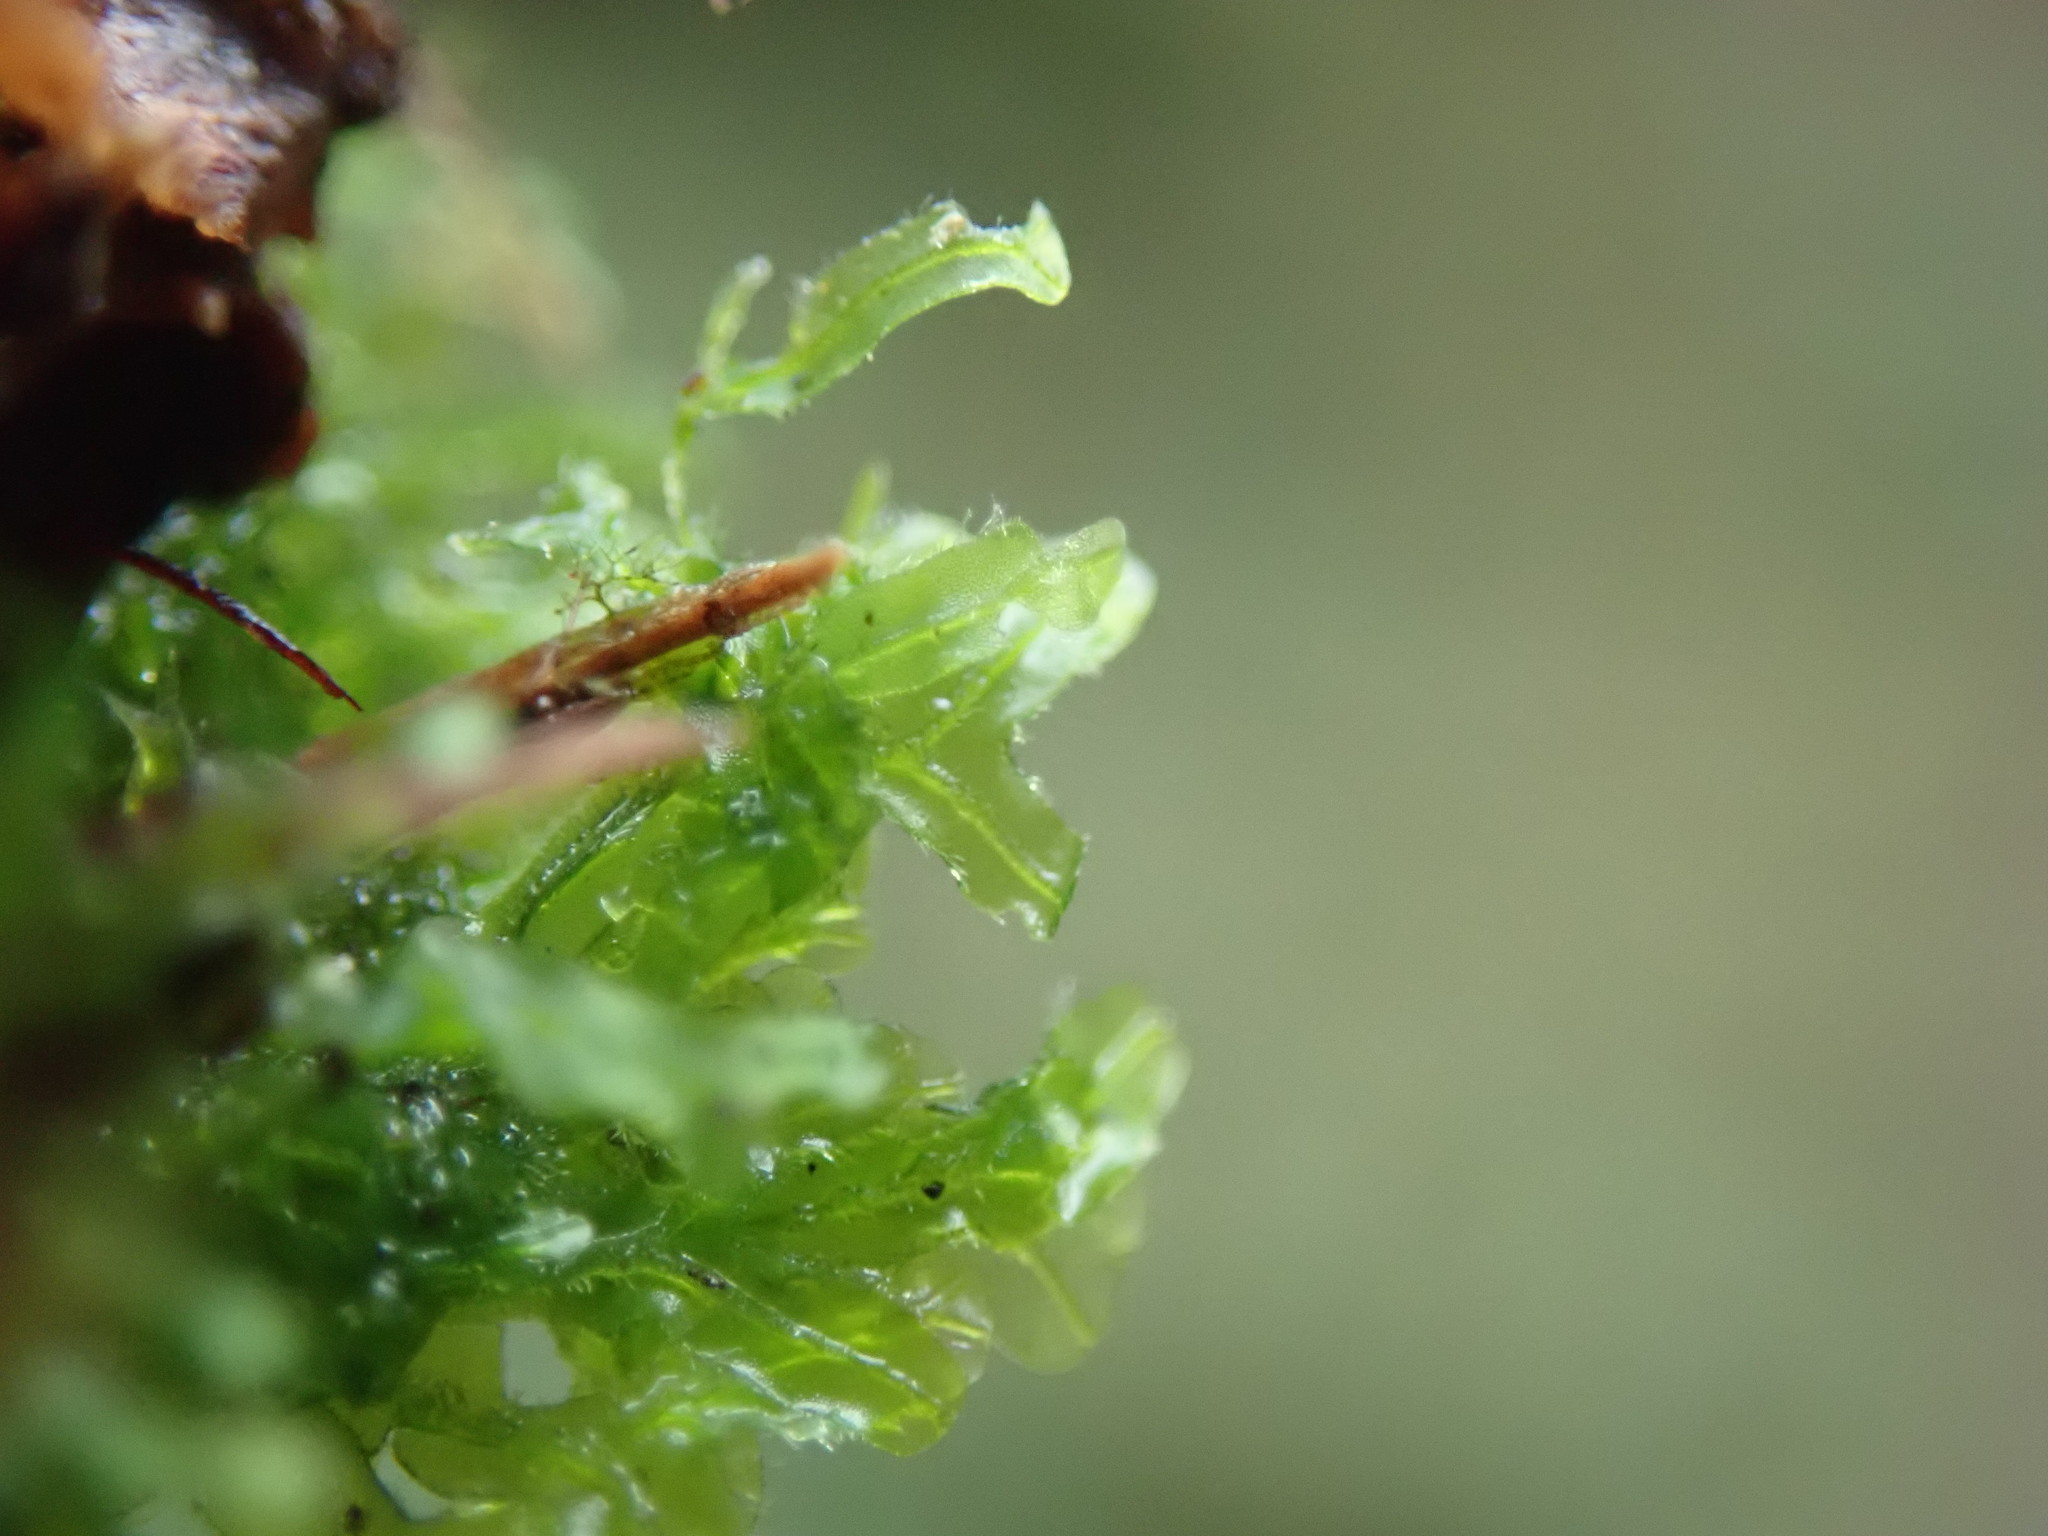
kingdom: Plantae
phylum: Marchantiophyta
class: Jungermanniopsida
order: Metzgeriales
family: Metzgeriaceae
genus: Metzgeria
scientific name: Metzgeria conjugata
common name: Rock veilwort
